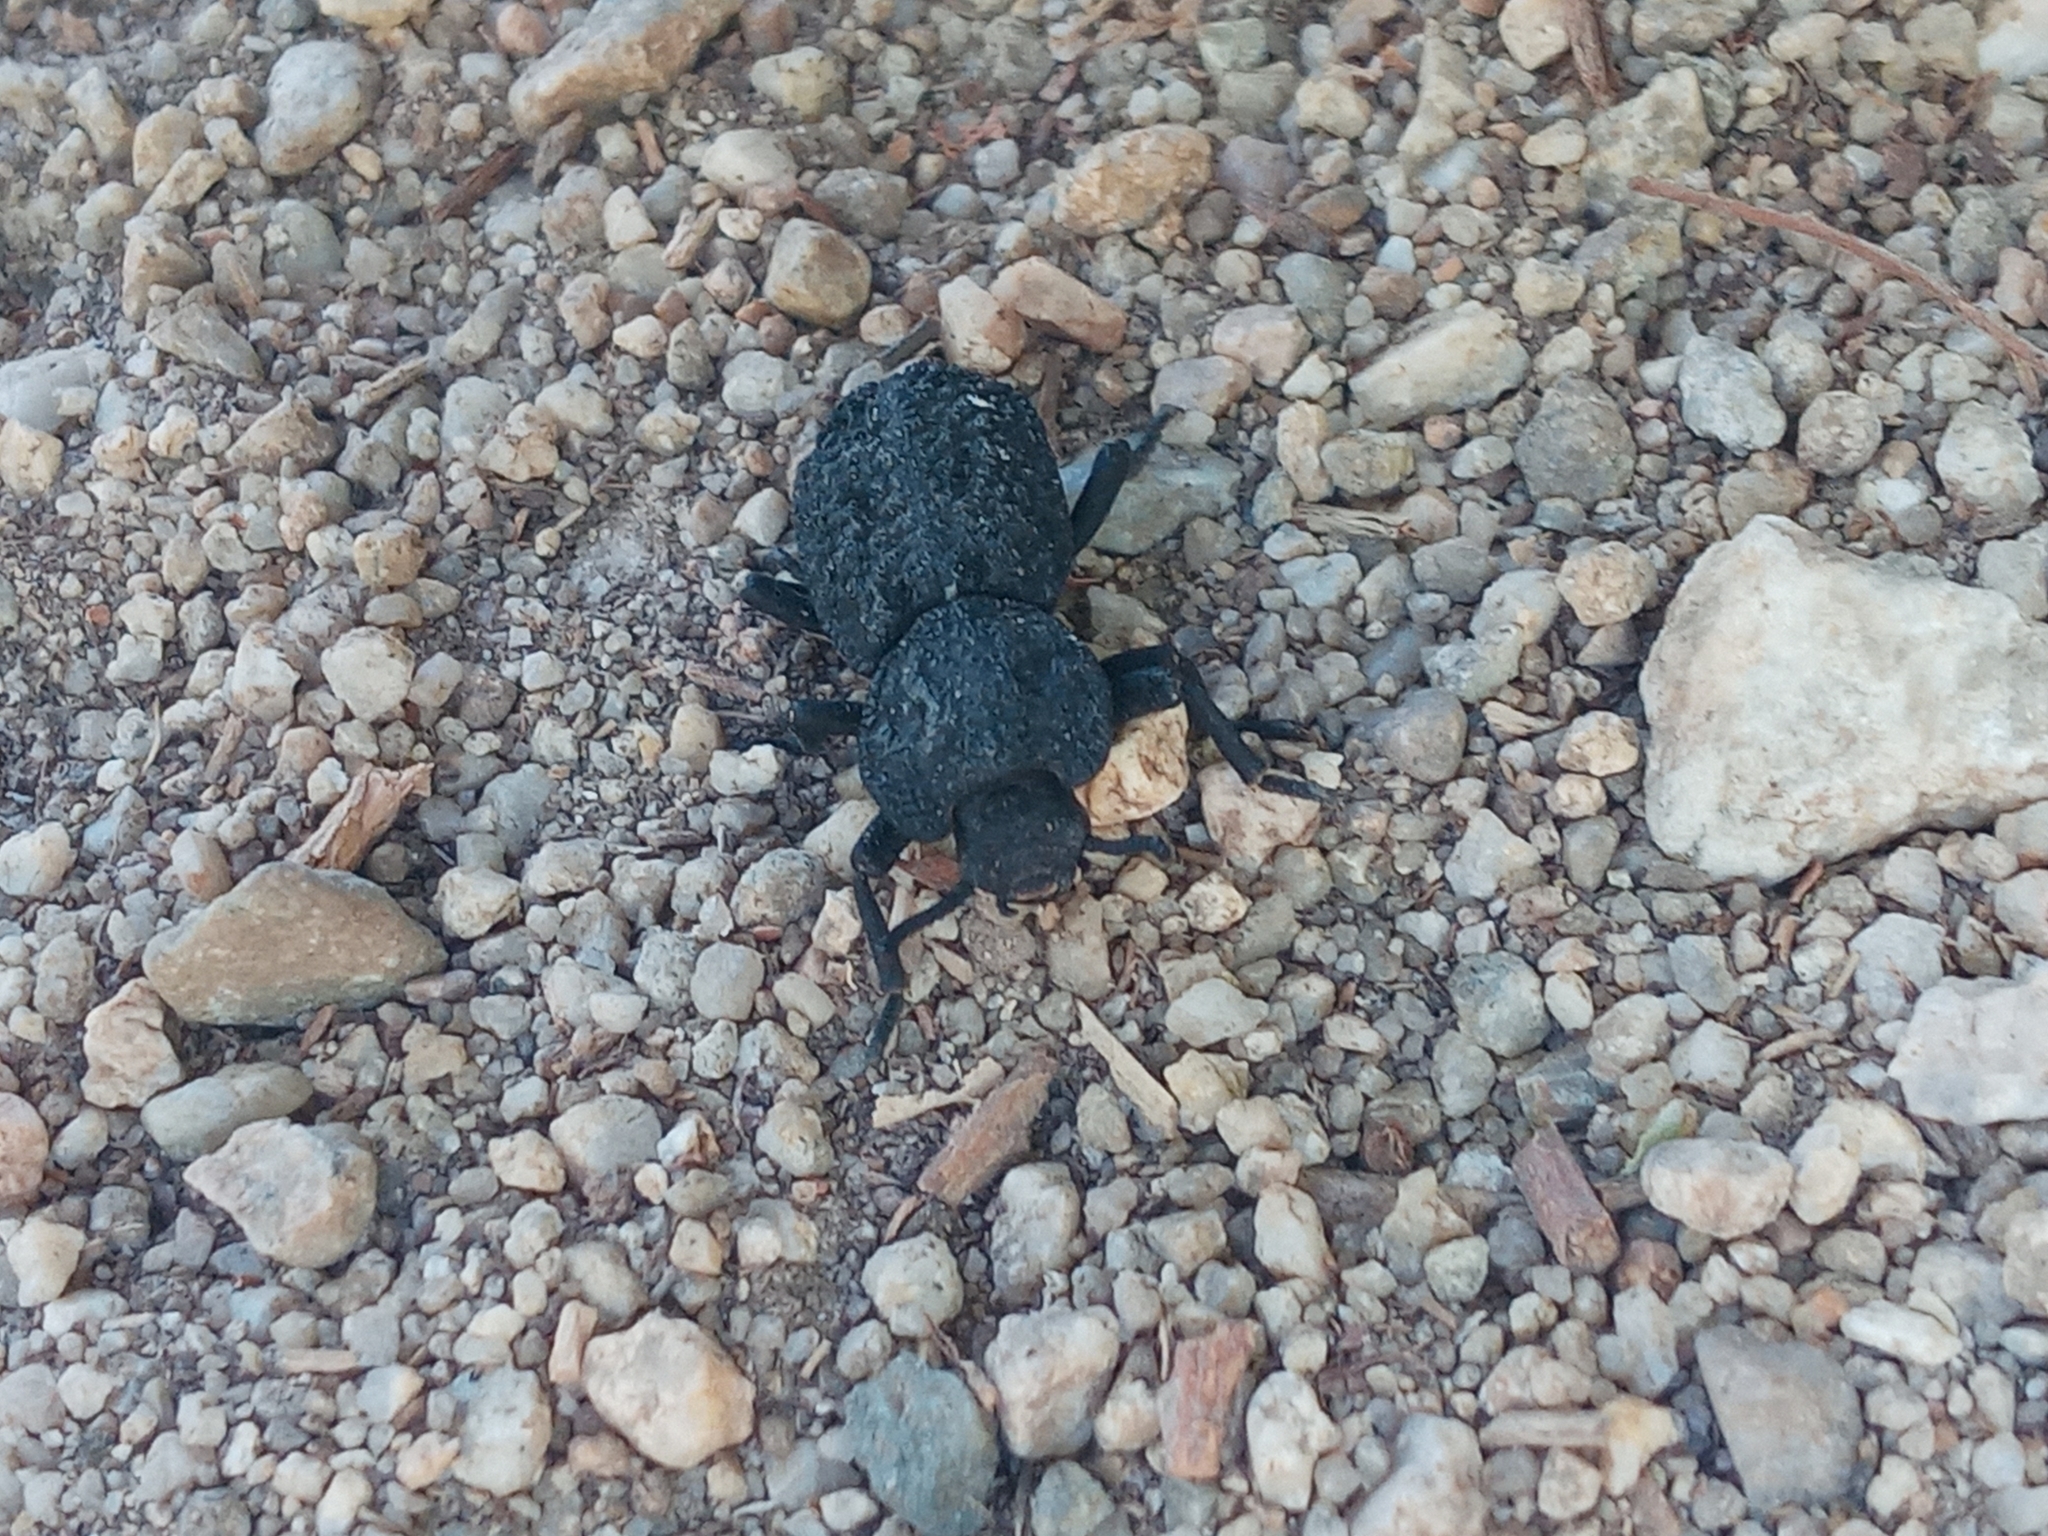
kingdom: Animalia
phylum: Arthropoda
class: Insecta
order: Coleoptera
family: Zopheridae
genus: Phloeodes
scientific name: Phloeodes diabolicus
